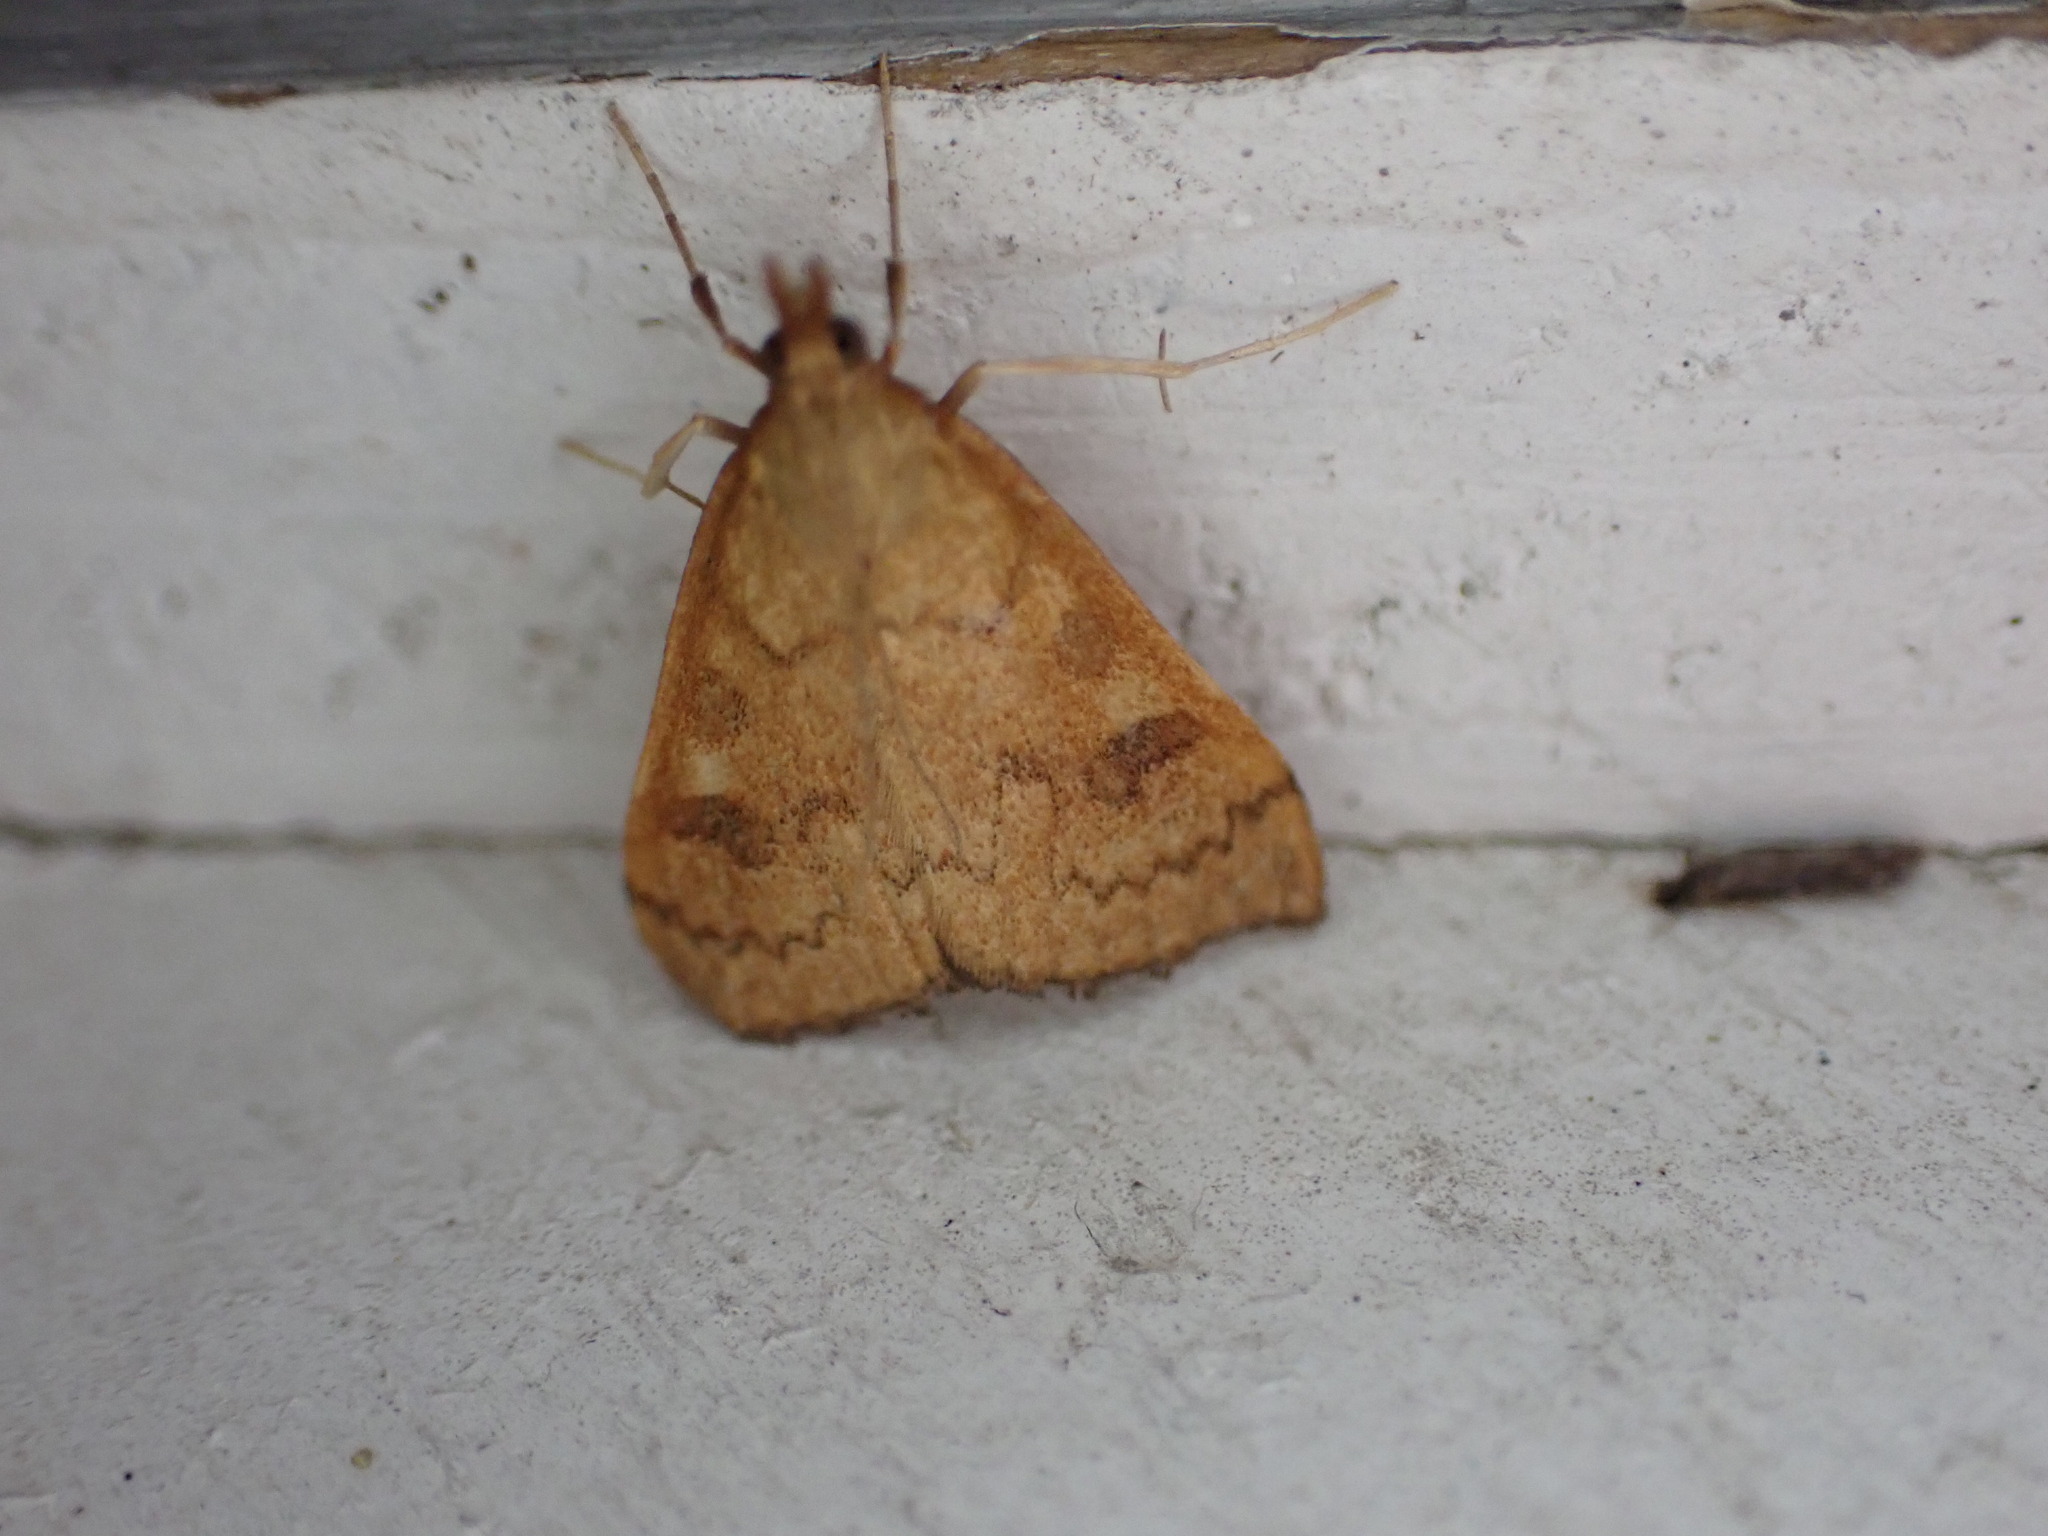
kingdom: Animalia
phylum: Arthropoda
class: Insecta
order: Lepidoptera
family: Crambidae
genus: Udea
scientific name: Udea Mnesictena flavidalis
